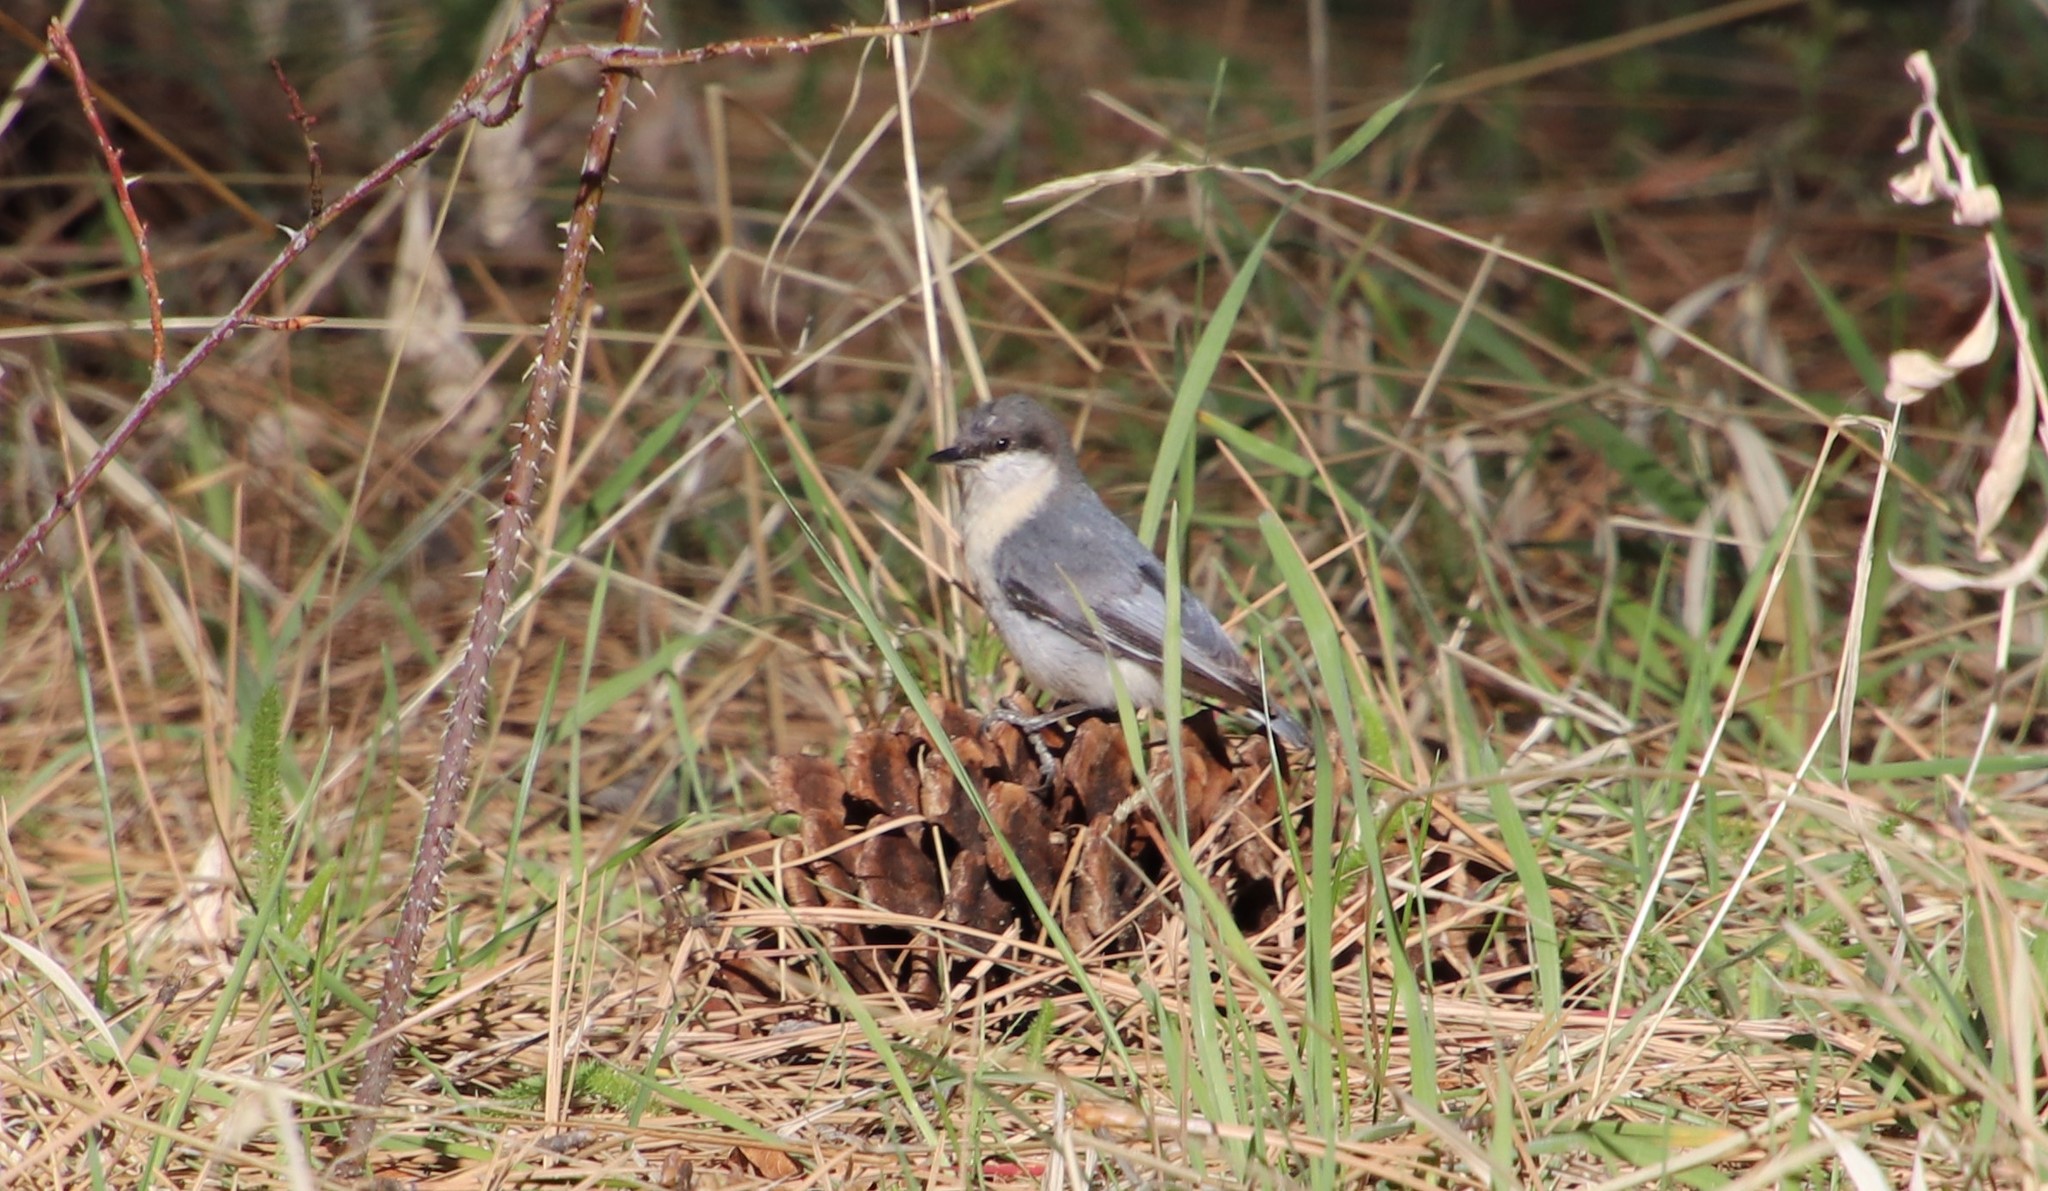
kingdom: Animalia
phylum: Chordata
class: Aves
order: Passeriformes
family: Sittidae
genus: Sitta
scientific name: Sitta pygmaea
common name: Pygmy nuthatch
